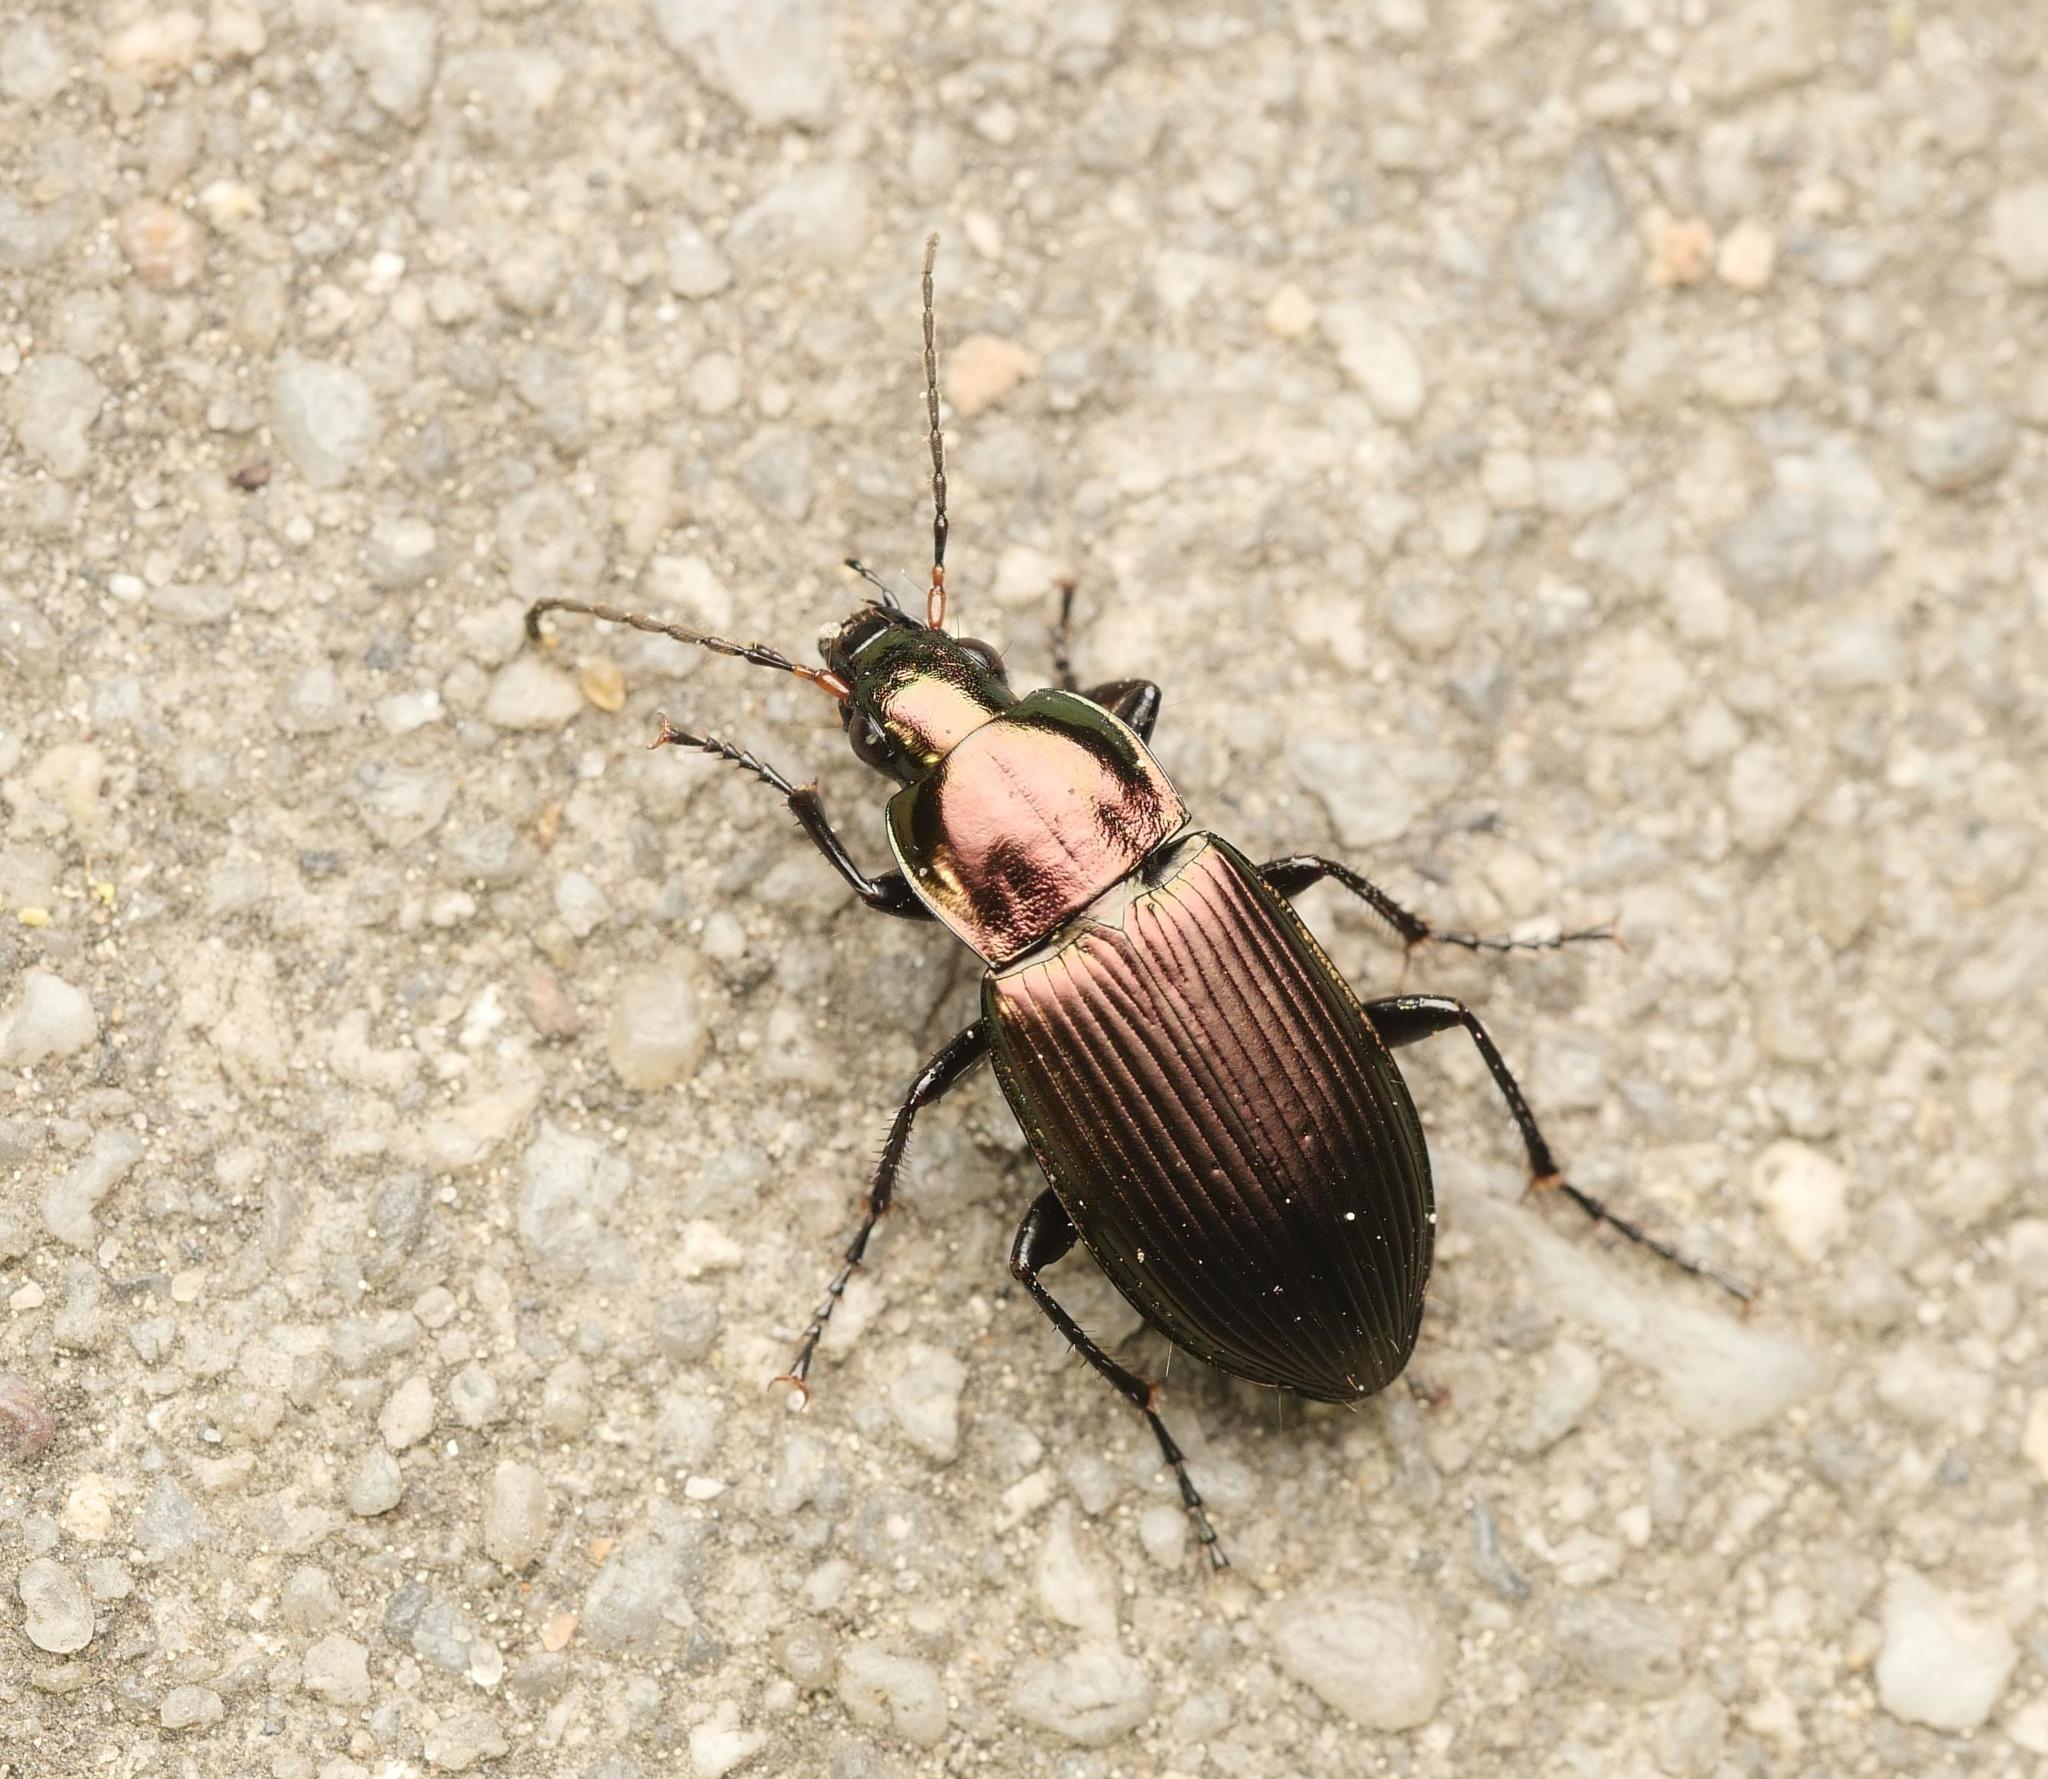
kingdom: Animalia
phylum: Arthropoda
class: Insecta
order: Coleoptera
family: Carabidae
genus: Poecilus
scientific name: Poecilus cupreus
